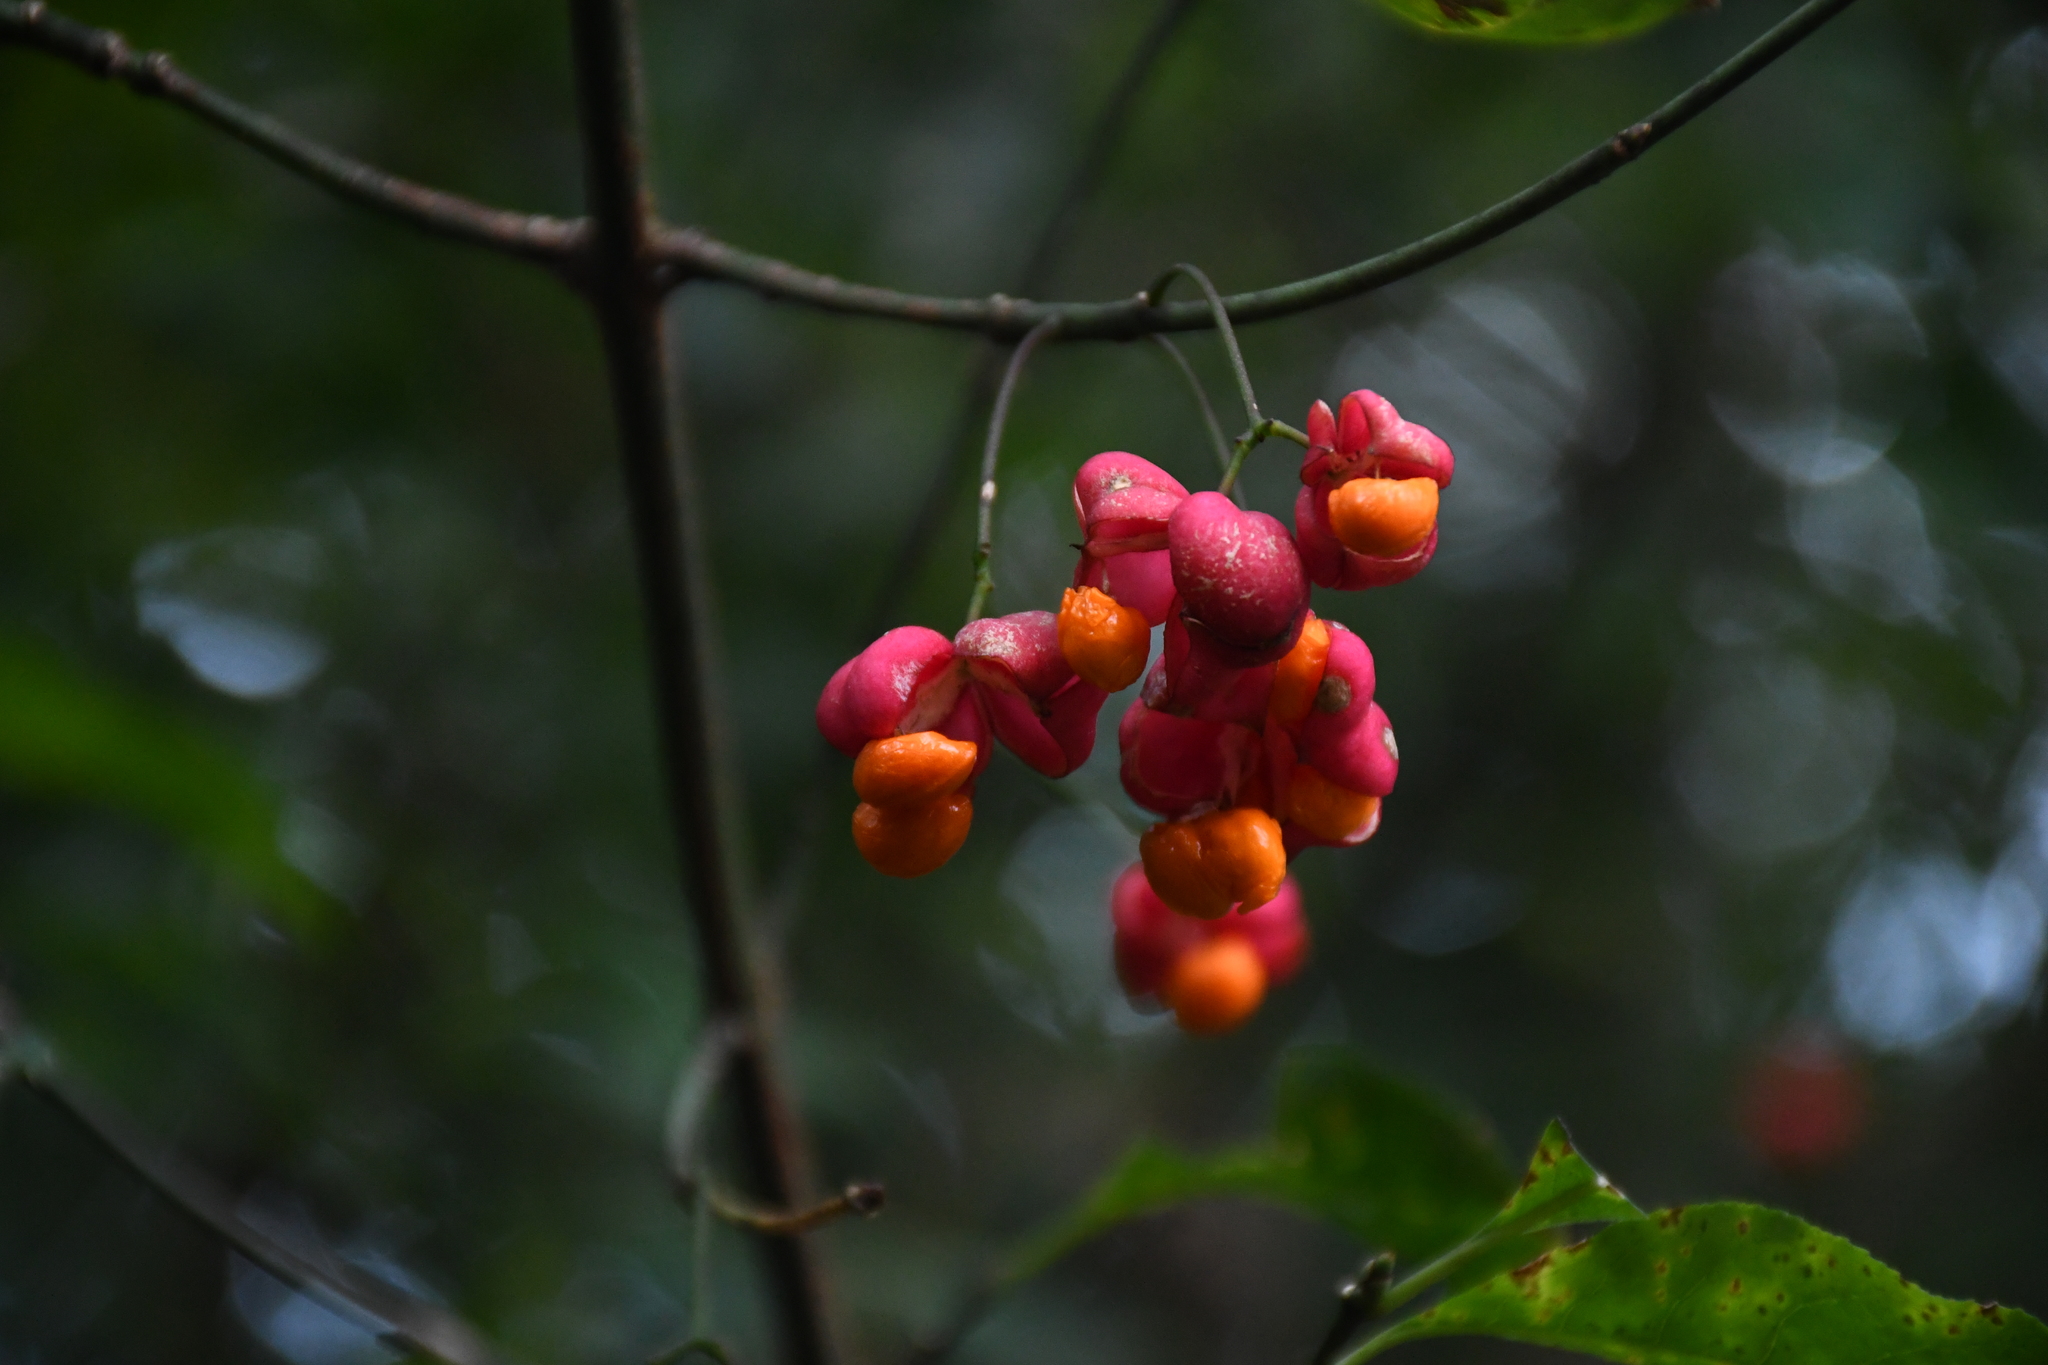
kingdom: Plantae
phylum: Tracheophyta
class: Magnoliopsida
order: Celastrales
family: Celastraceae
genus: Euonymus
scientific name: Euonymus europaeus
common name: Spindle
